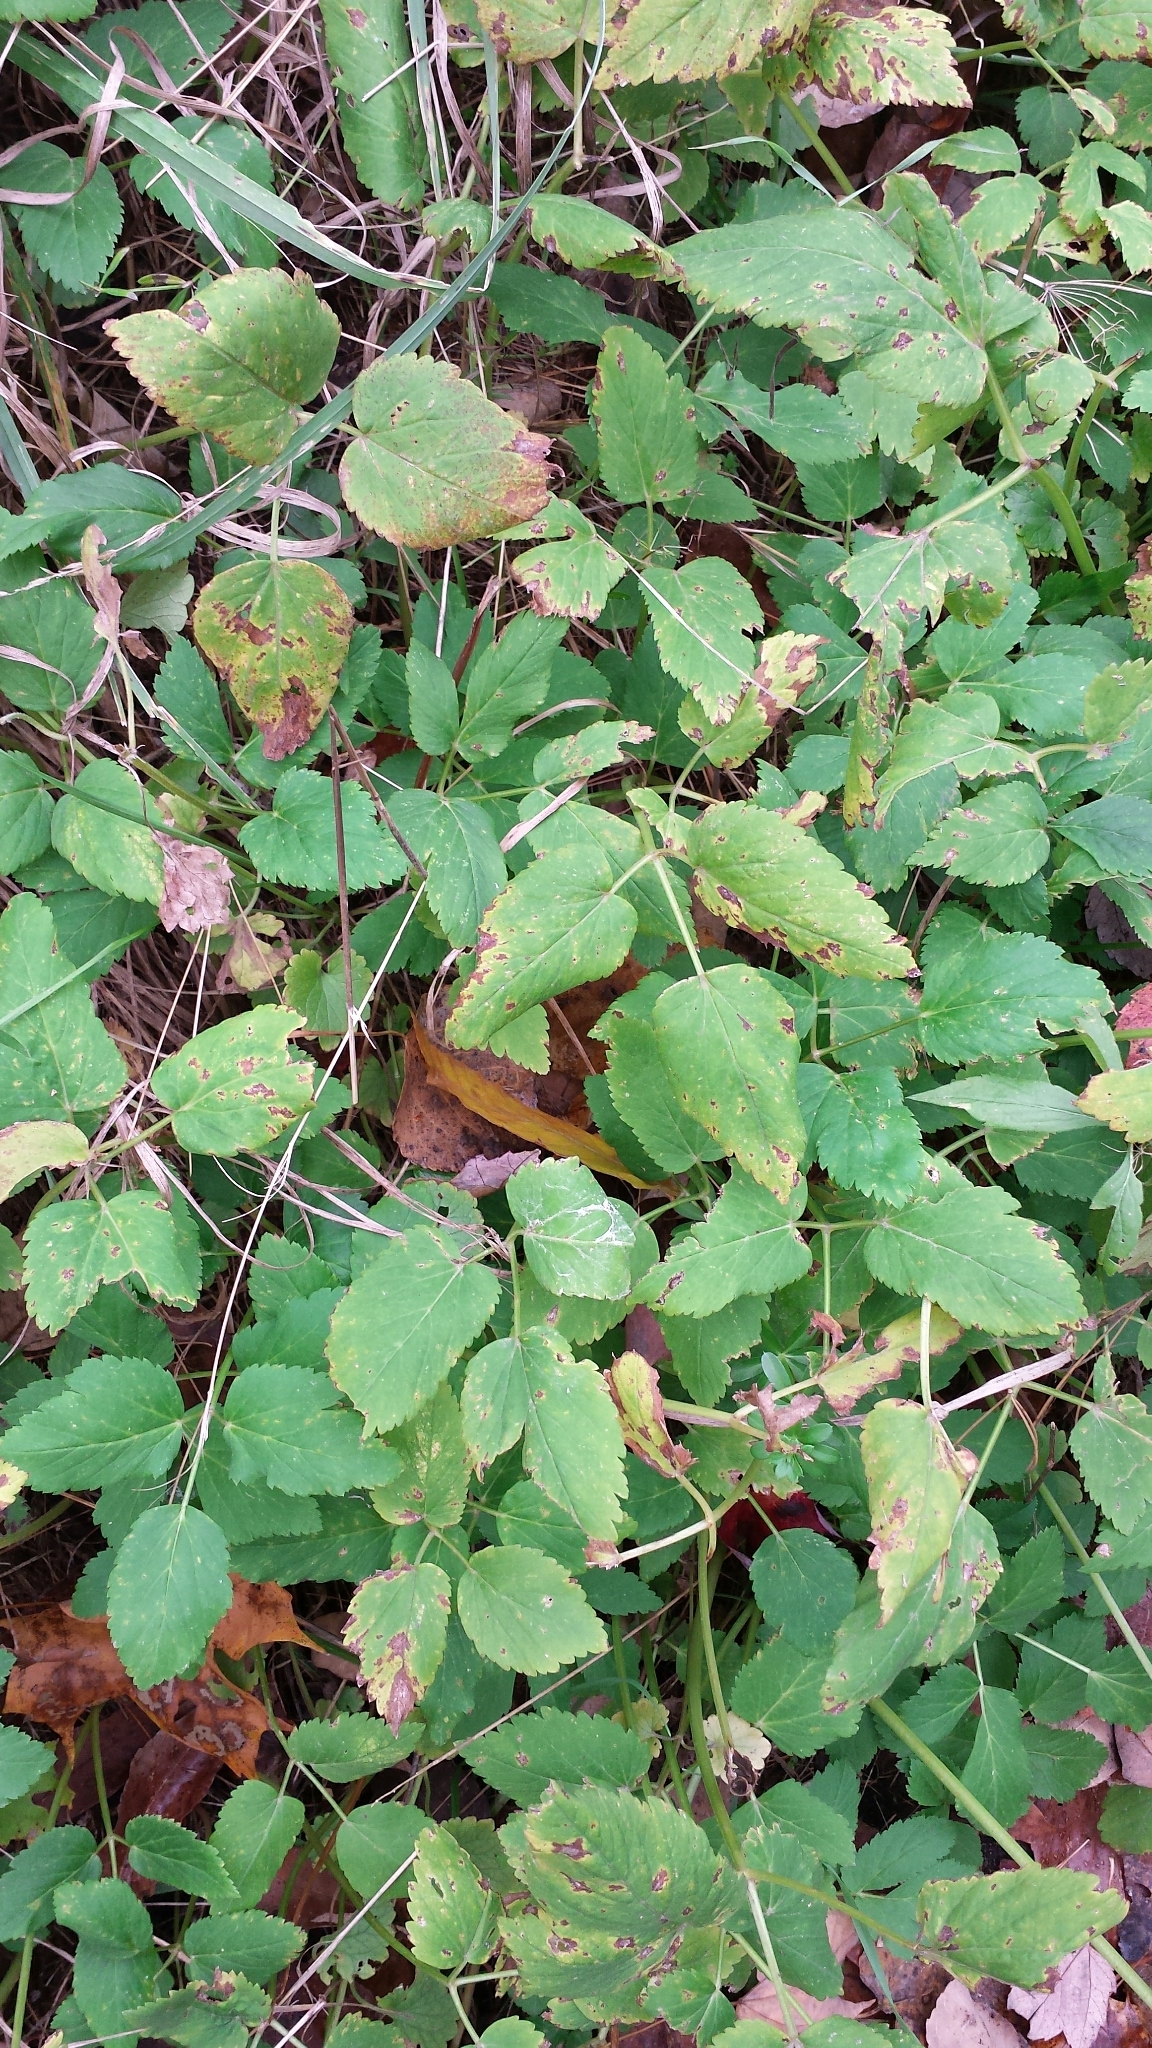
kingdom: Plantae
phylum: Tracheophyta
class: Magnoliopsida
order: Apiales
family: Apiaceae
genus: Aegopodium
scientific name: Aegopodium podagraria
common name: Ground-elder
